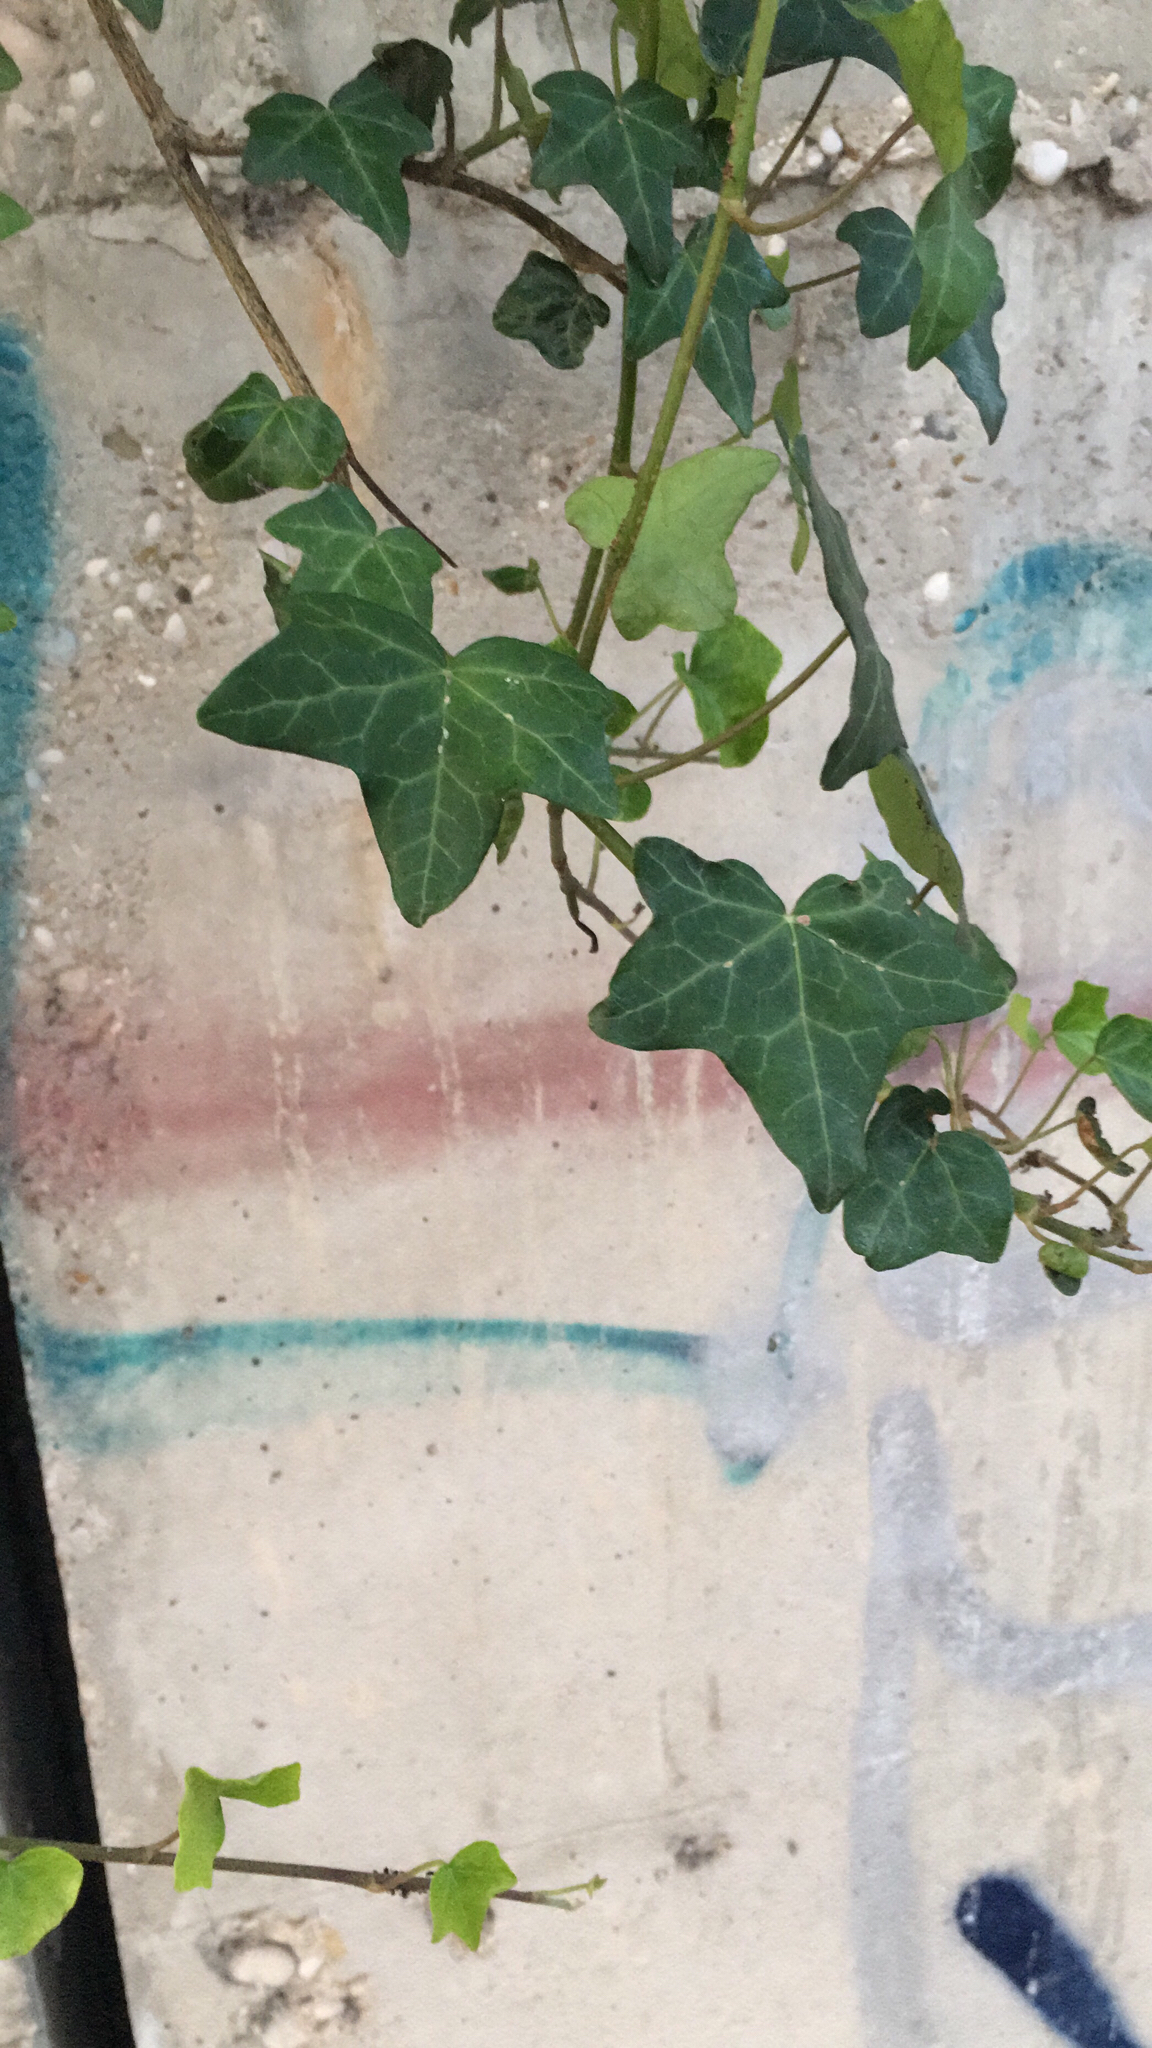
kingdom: Plantae
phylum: Tracheophyta
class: Magnoliopsida
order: Apiales
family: Araliaceae
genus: Hedera
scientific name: Hedera helix
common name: Ivy
